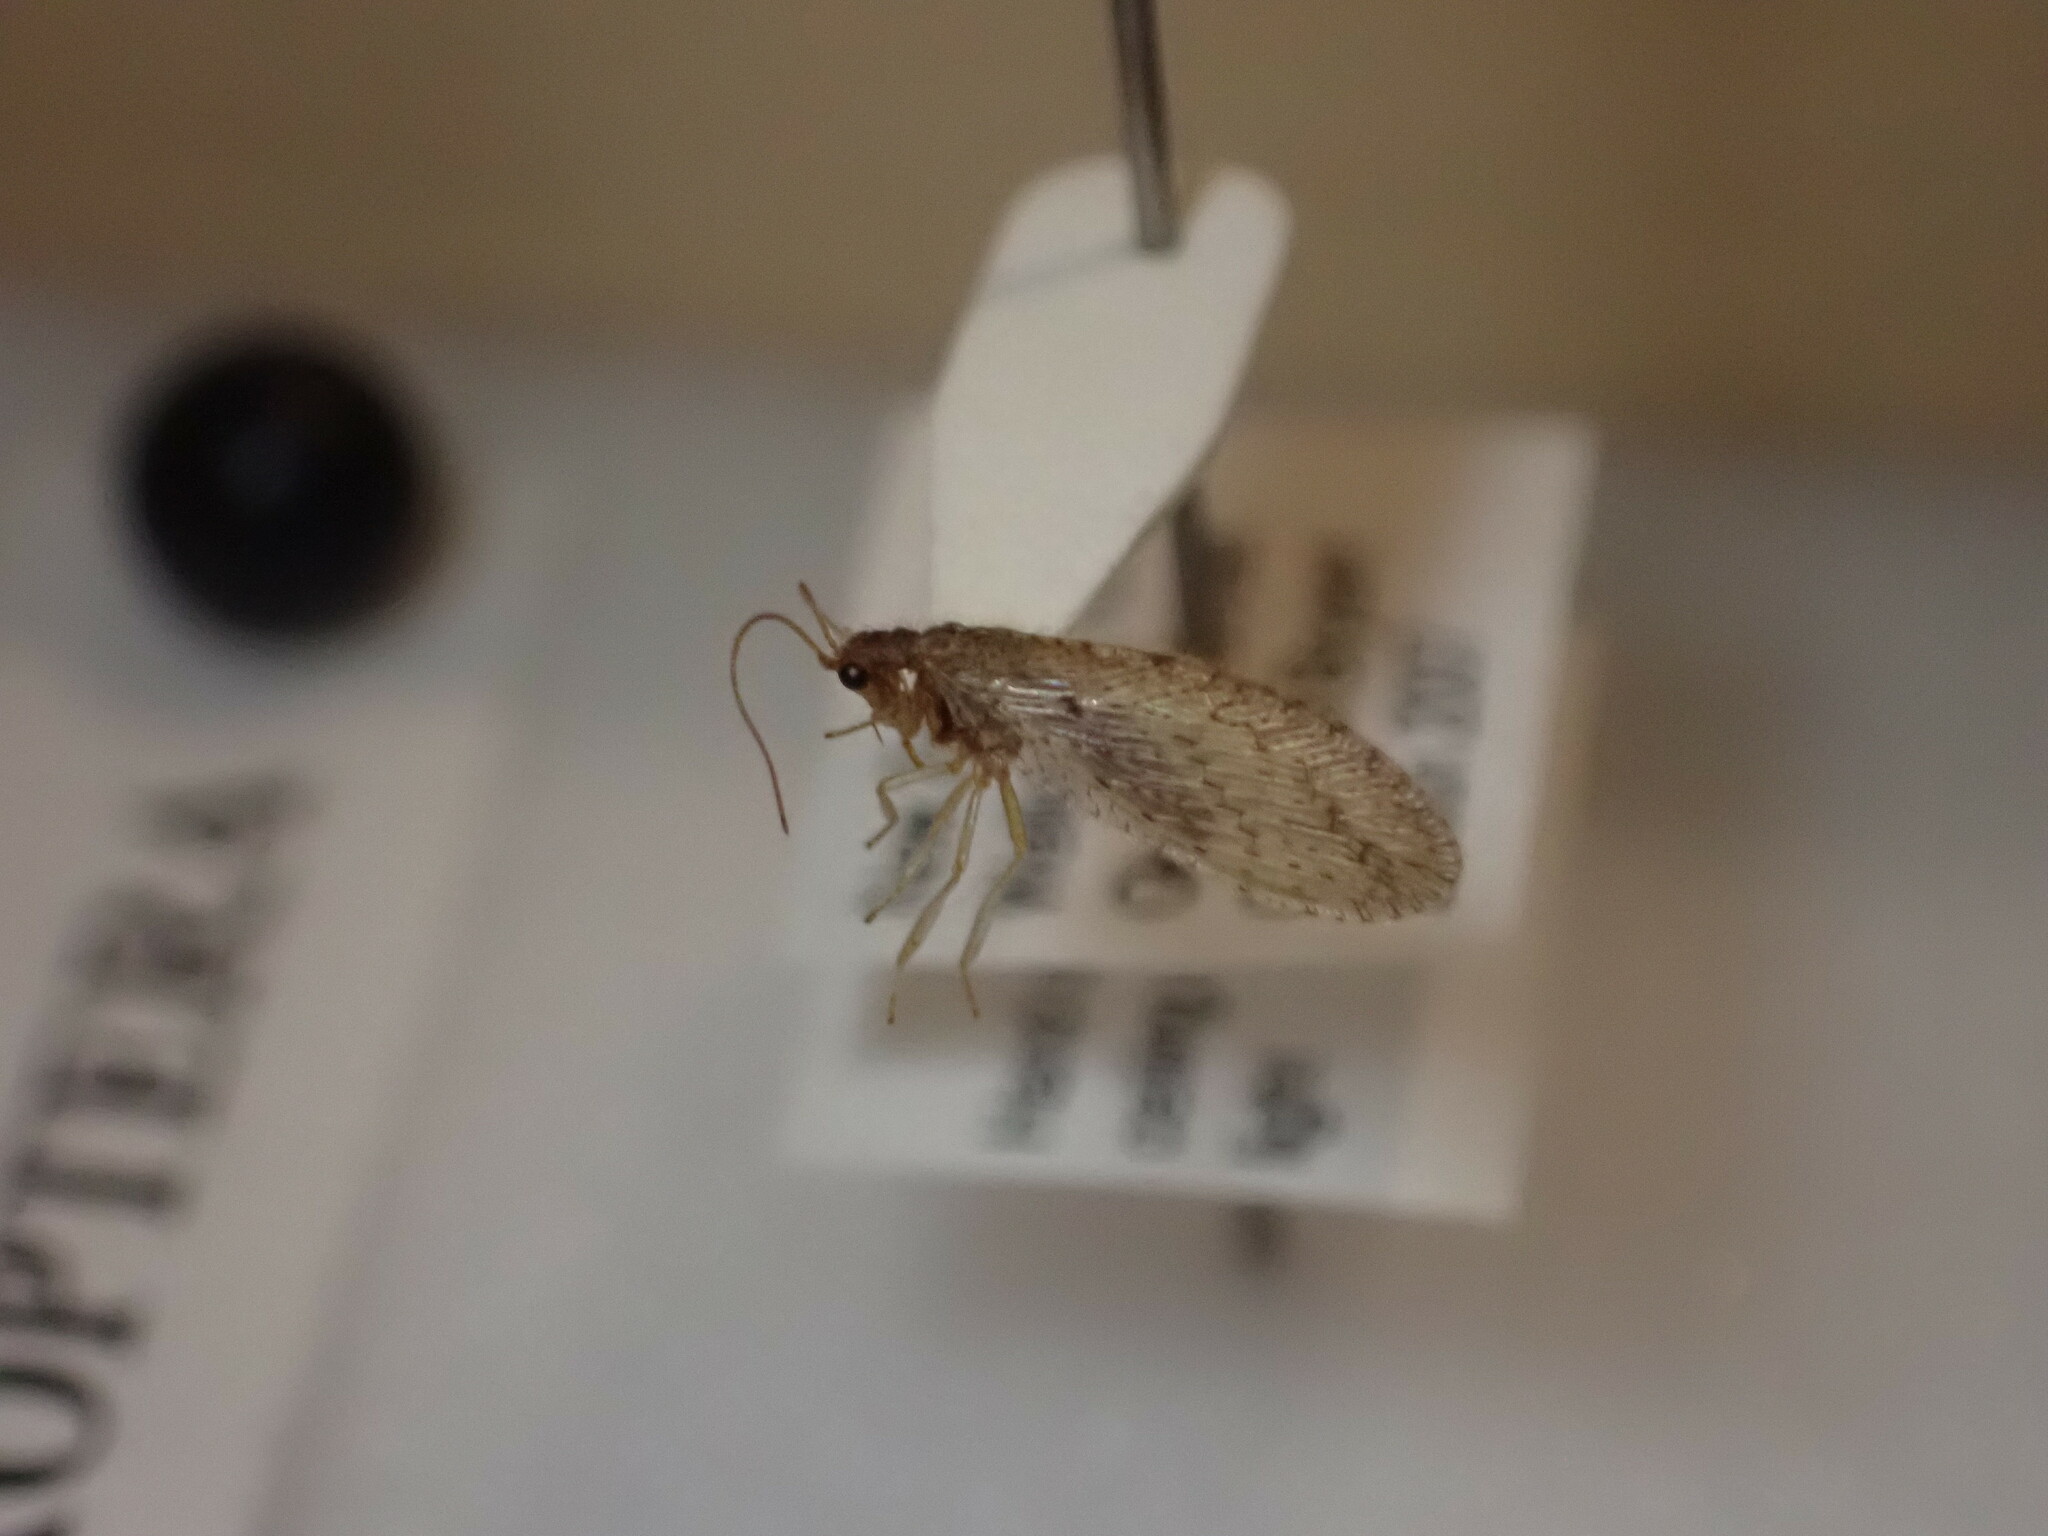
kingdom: Animalia
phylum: Arthropoda
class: Insecta
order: Neuroptera
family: Hemerobiidae
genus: Micromus
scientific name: Micromus tasmaniae
